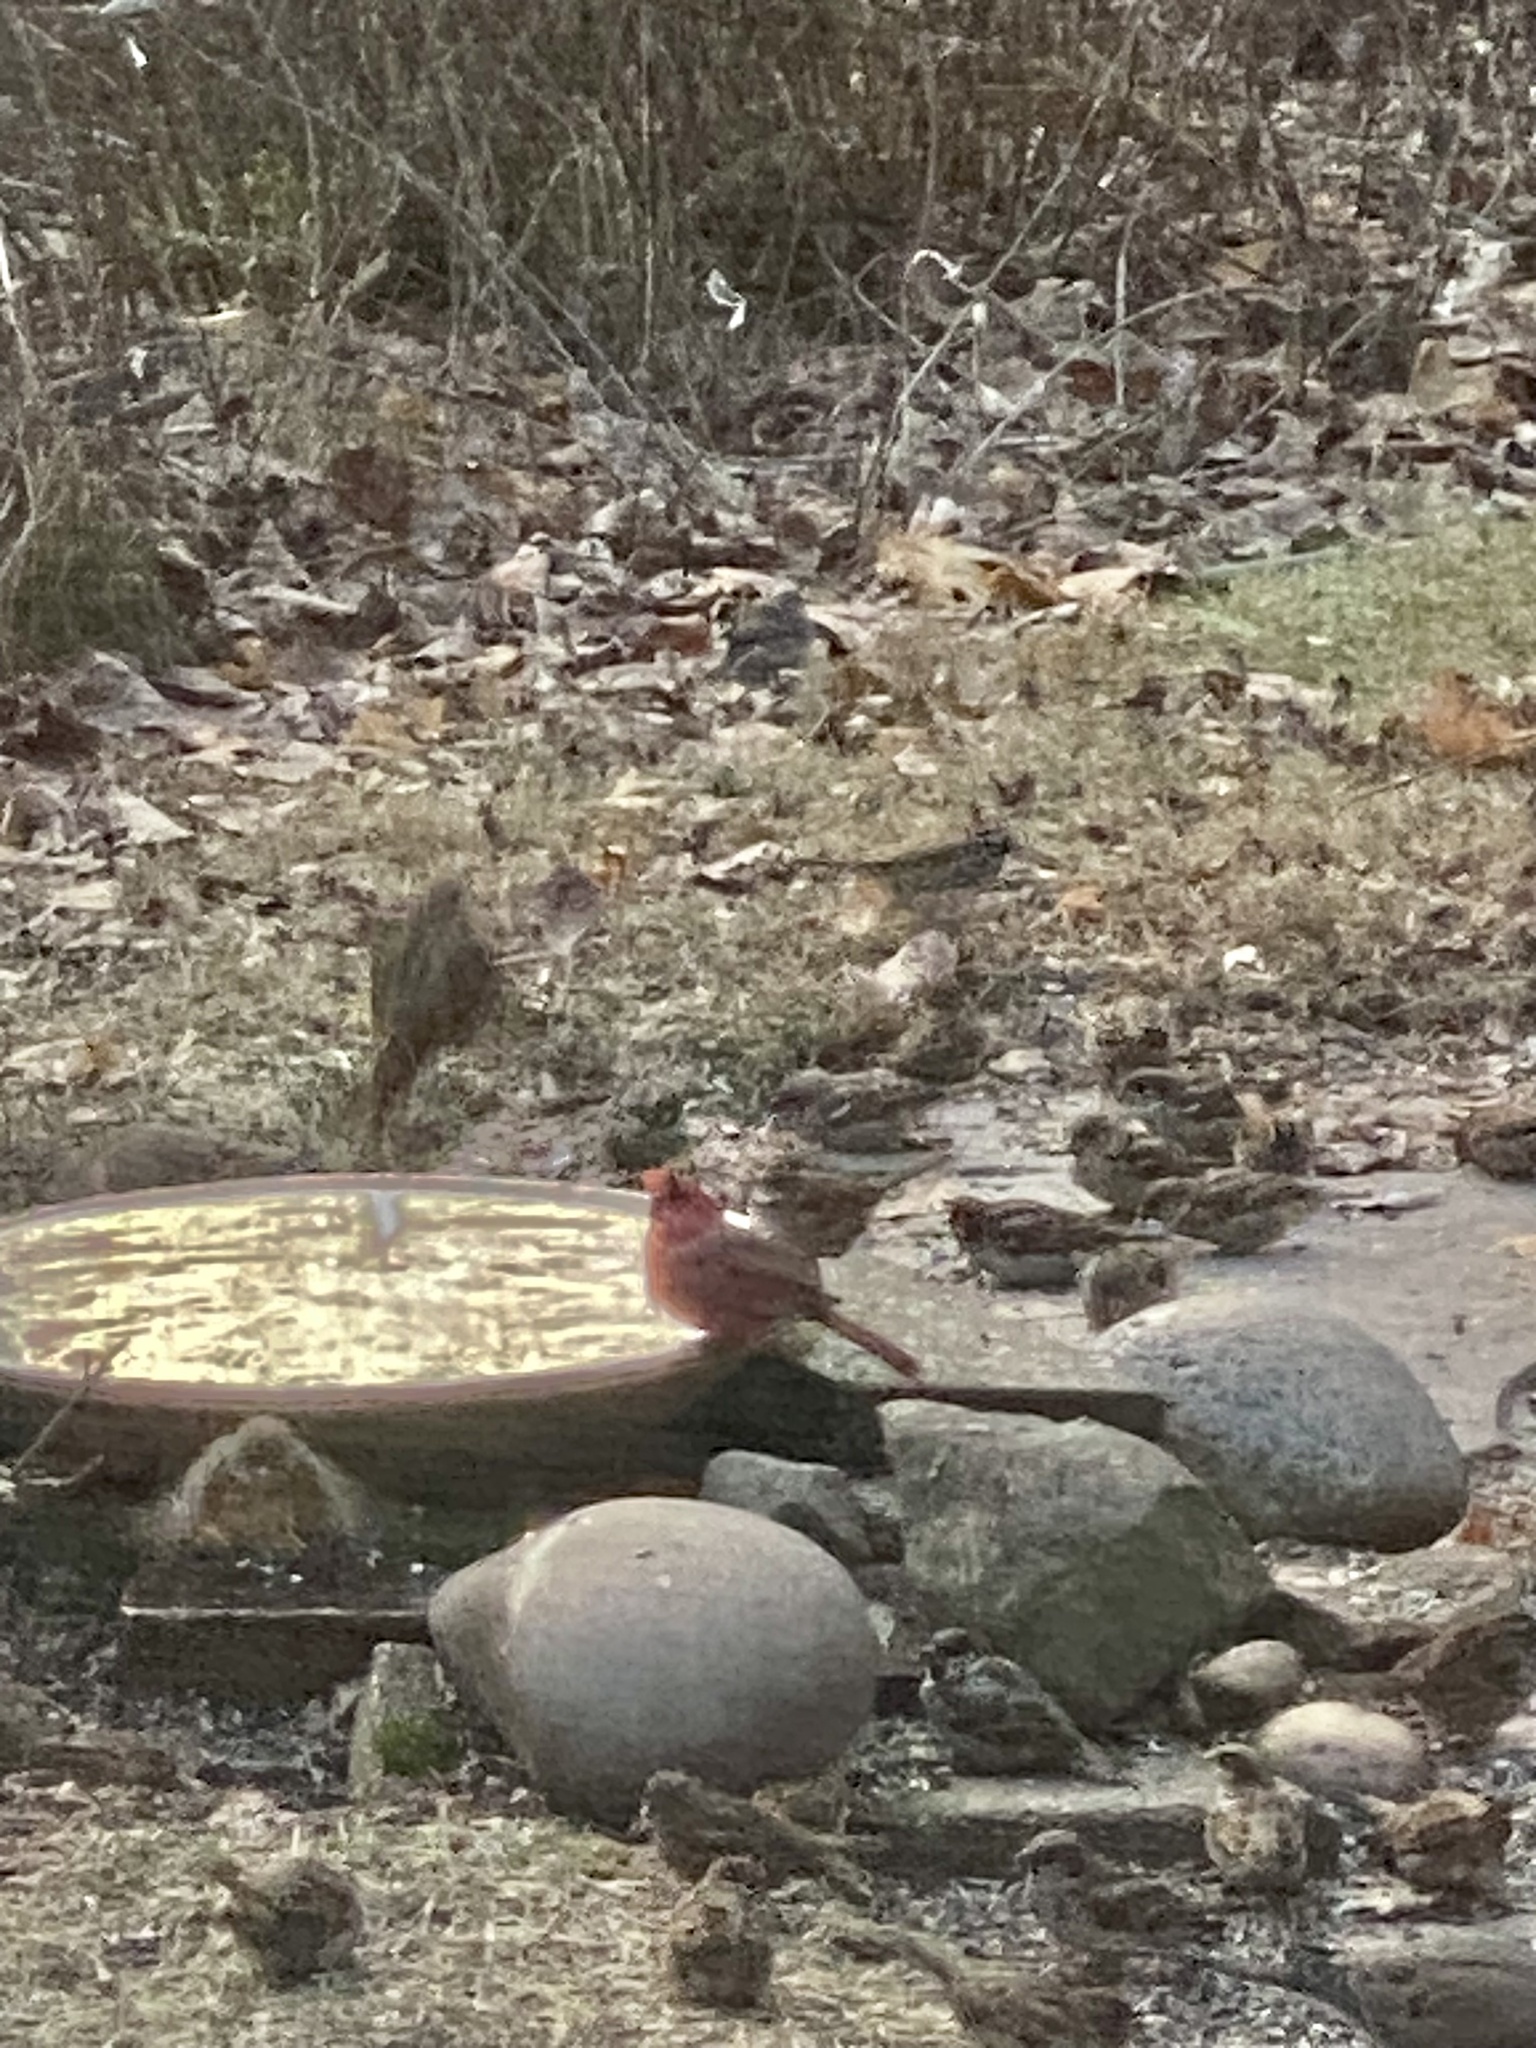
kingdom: Animalia
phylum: Chordata
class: Aves
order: Passeriformes
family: Cardinalidae
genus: Cardinalis
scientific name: Cardinalis cardinalis
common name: Northern cardinal
